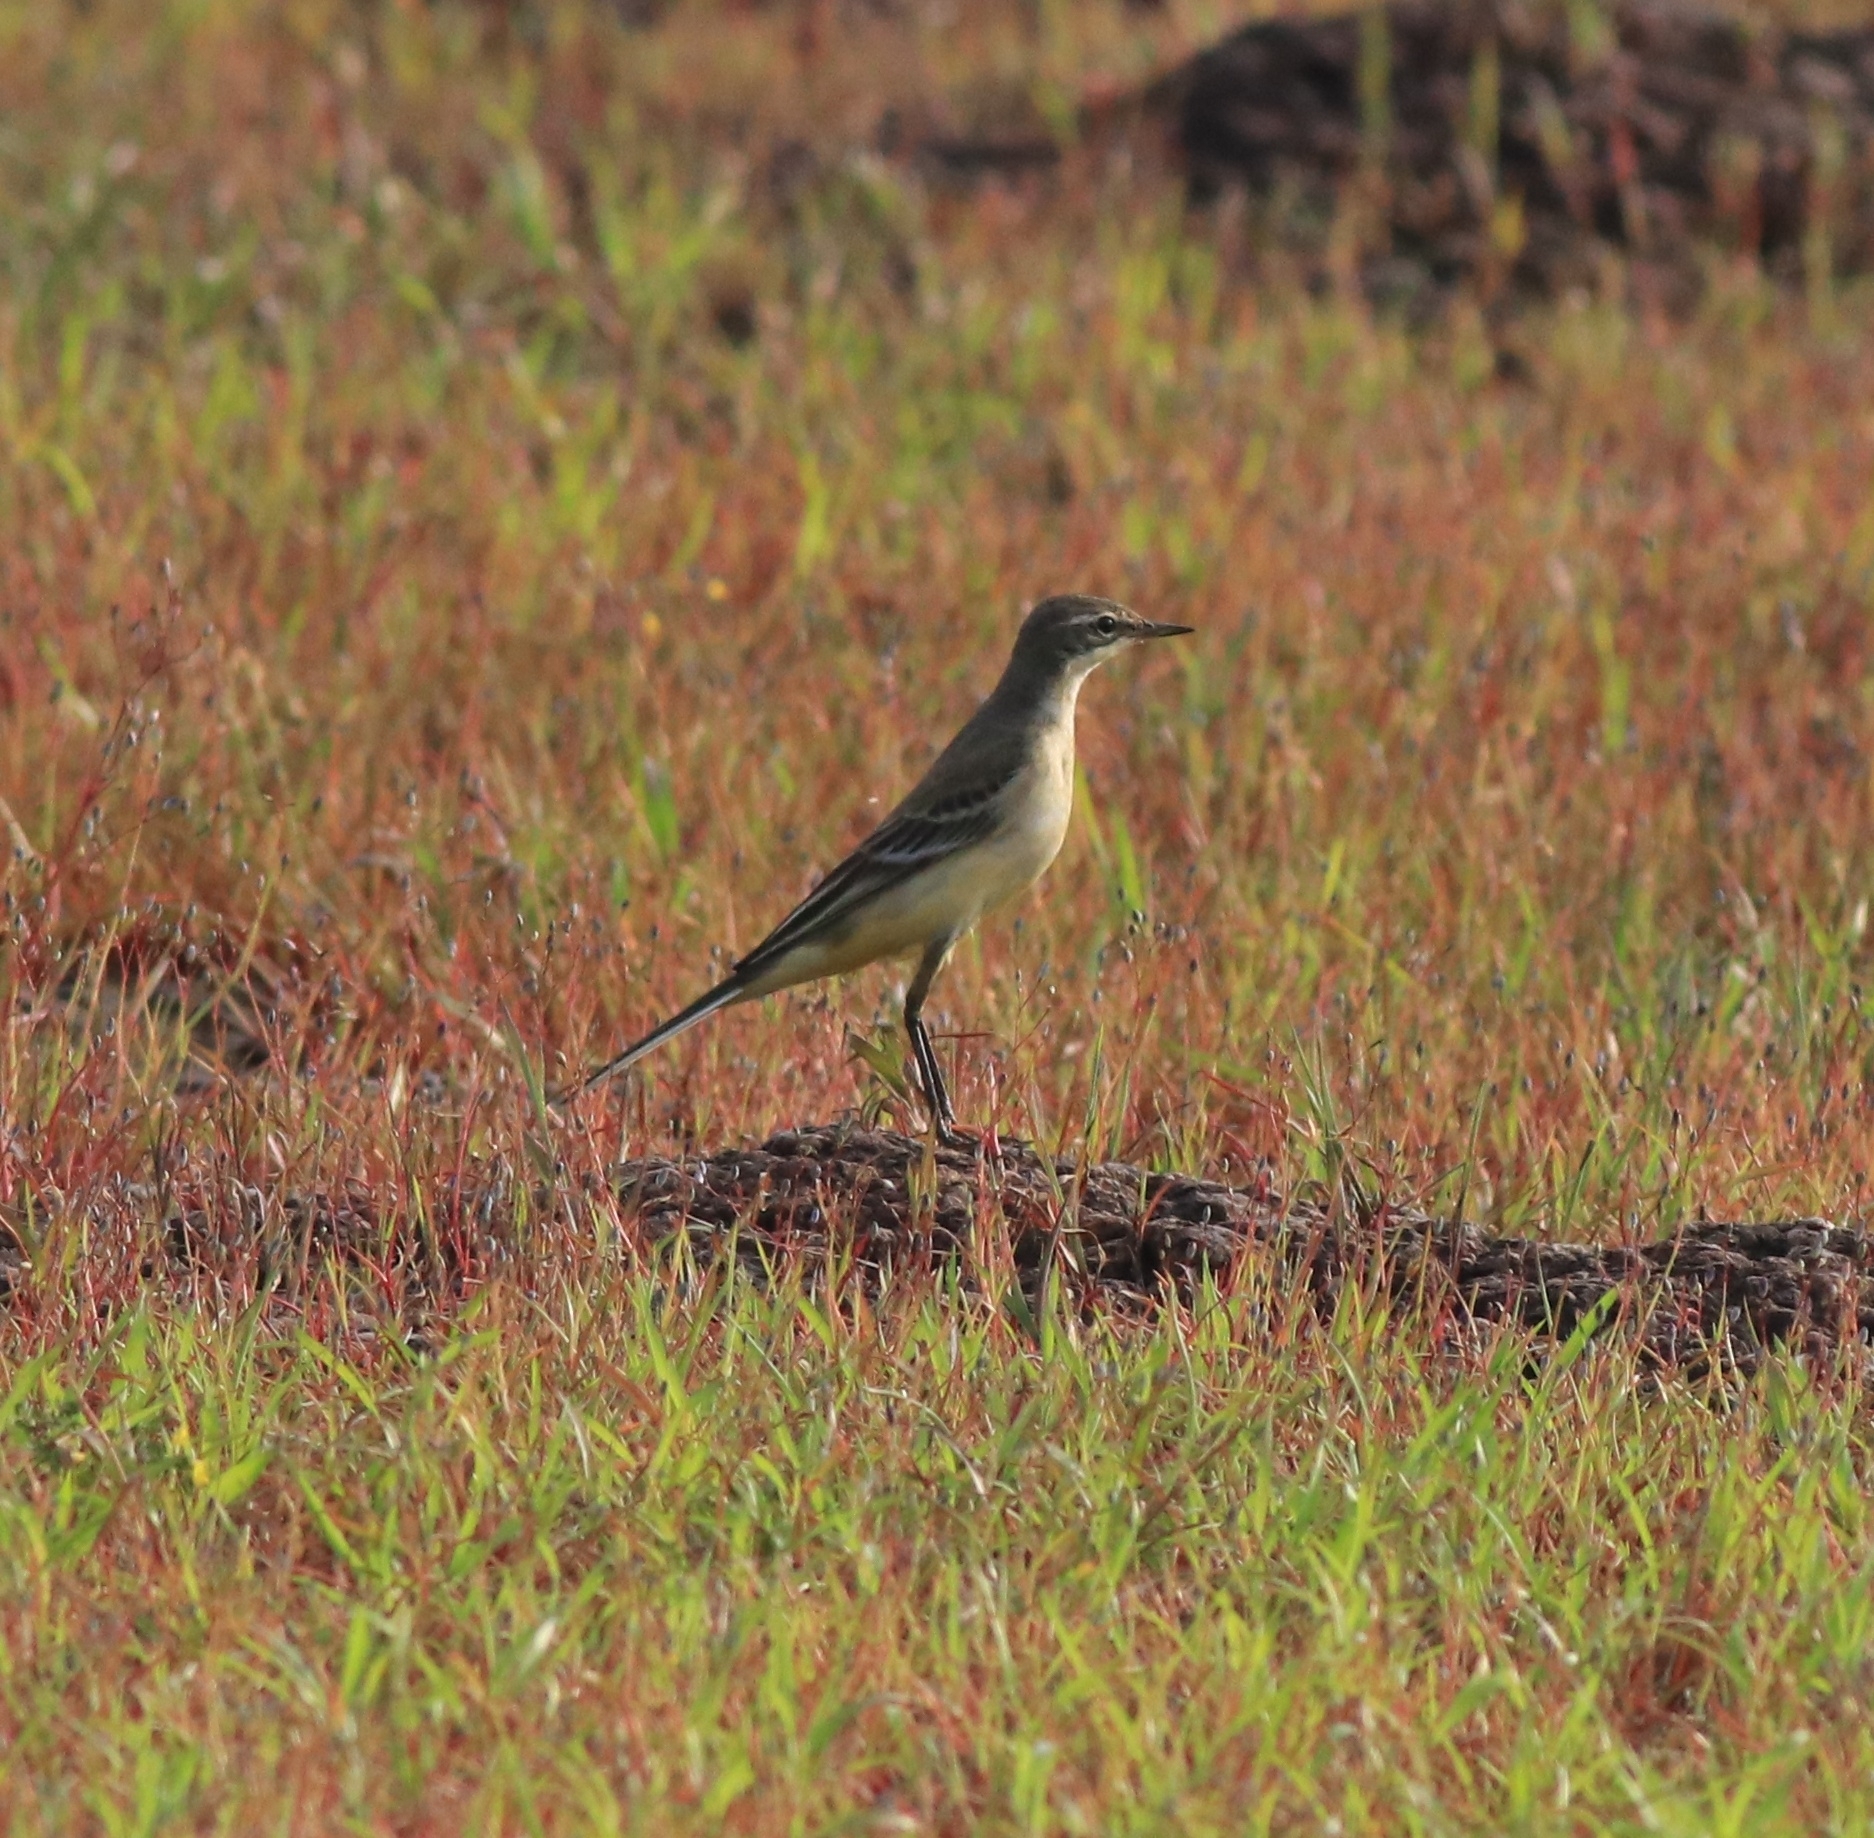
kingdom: Animalia
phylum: Chordata
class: Aves
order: Passeriformes
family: Motacillidae
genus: Motacilla
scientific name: Motacilla flava
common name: Western yellow wagtail
